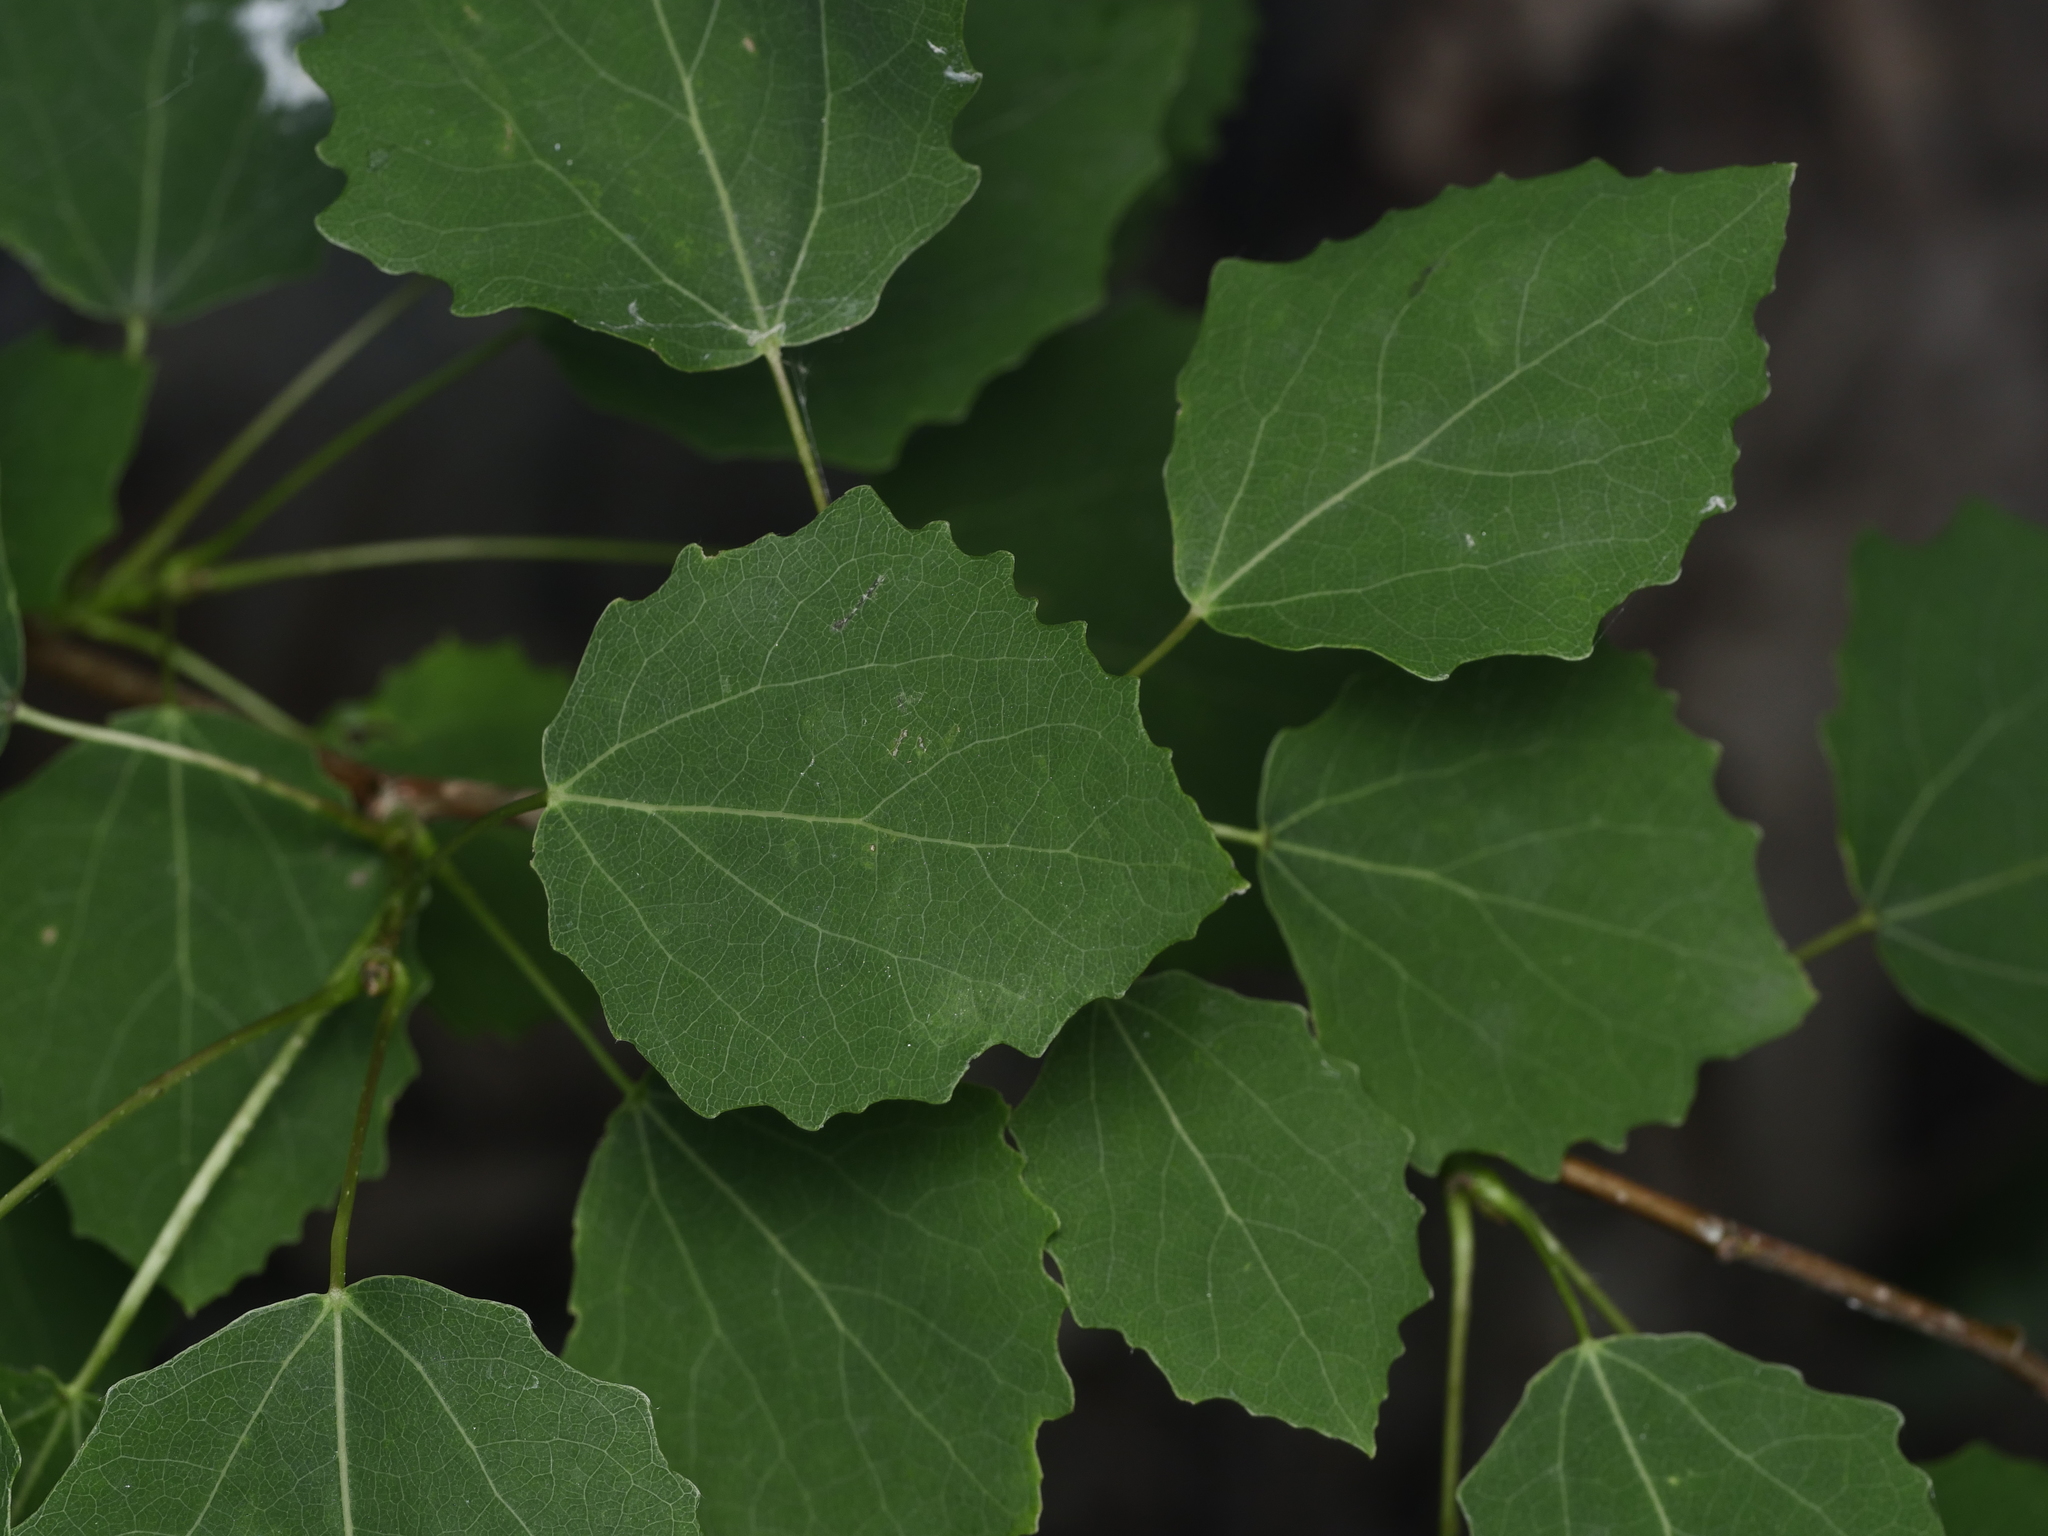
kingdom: Plantae
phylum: Tracheophyta
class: Magnoliopsida
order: Malpighiales
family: Salicaceae
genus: Populus
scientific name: Populus tremula
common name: European aspen
